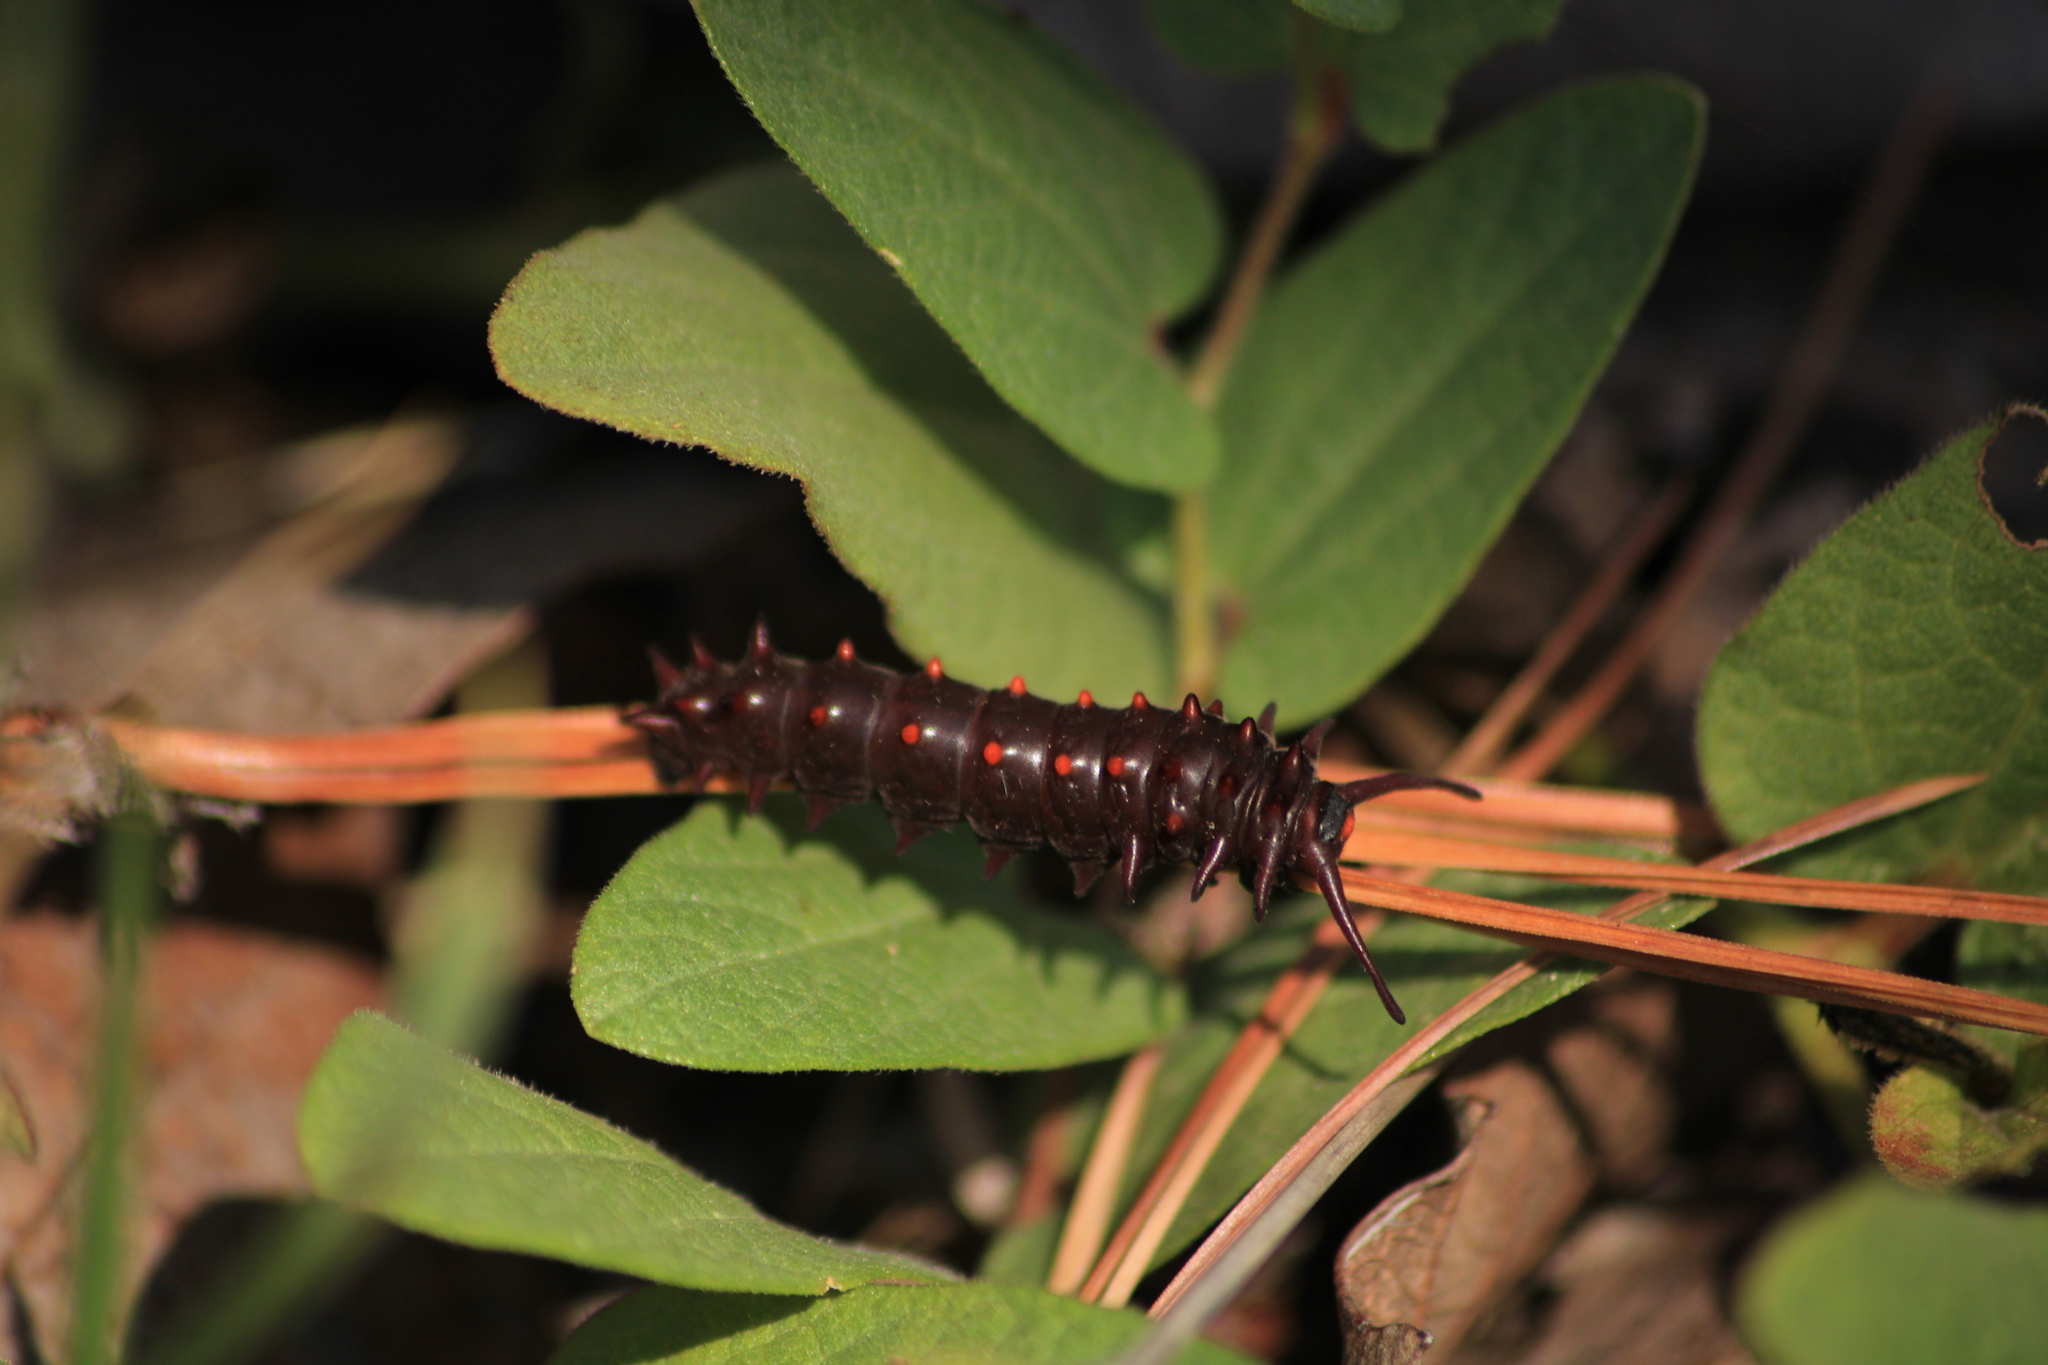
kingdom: Animalia
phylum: Arthropoda
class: Insecta
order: Lepidoptera
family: Papilionidae
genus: Battus
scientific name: Battus philenor
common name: Pipevine swallowtail
